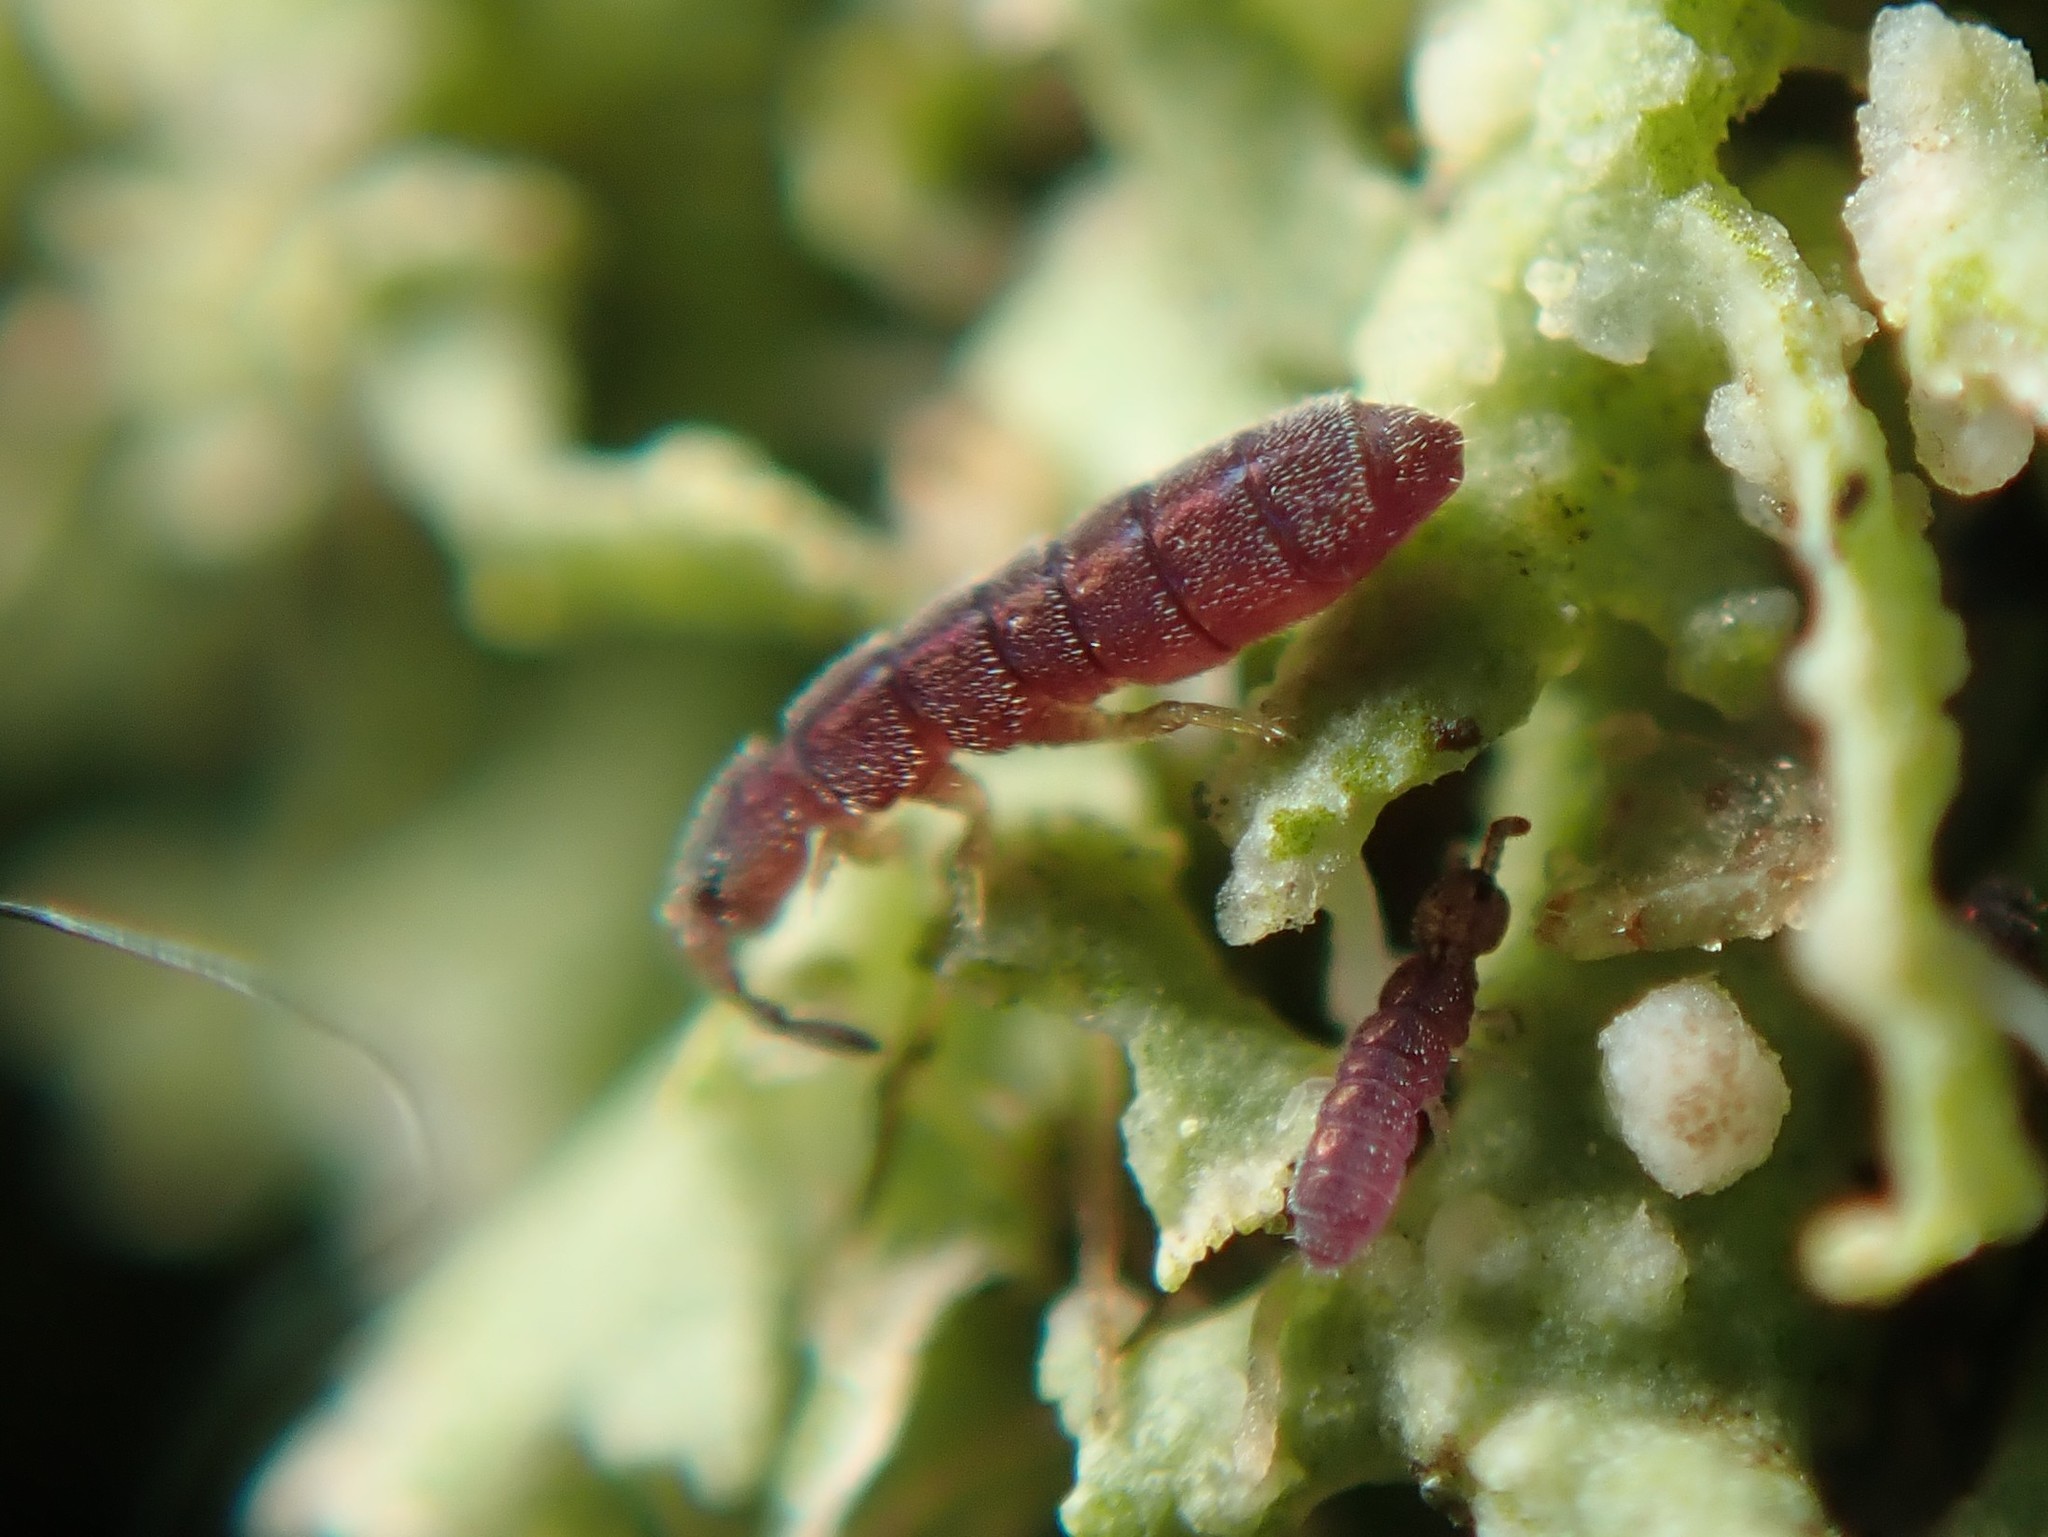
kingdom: Animalia
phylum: Arthropoda
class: Collembola
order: Entomobryomorpha
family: Isotomidae
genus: Vertagopus
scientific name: Vertagopus asiaticus
